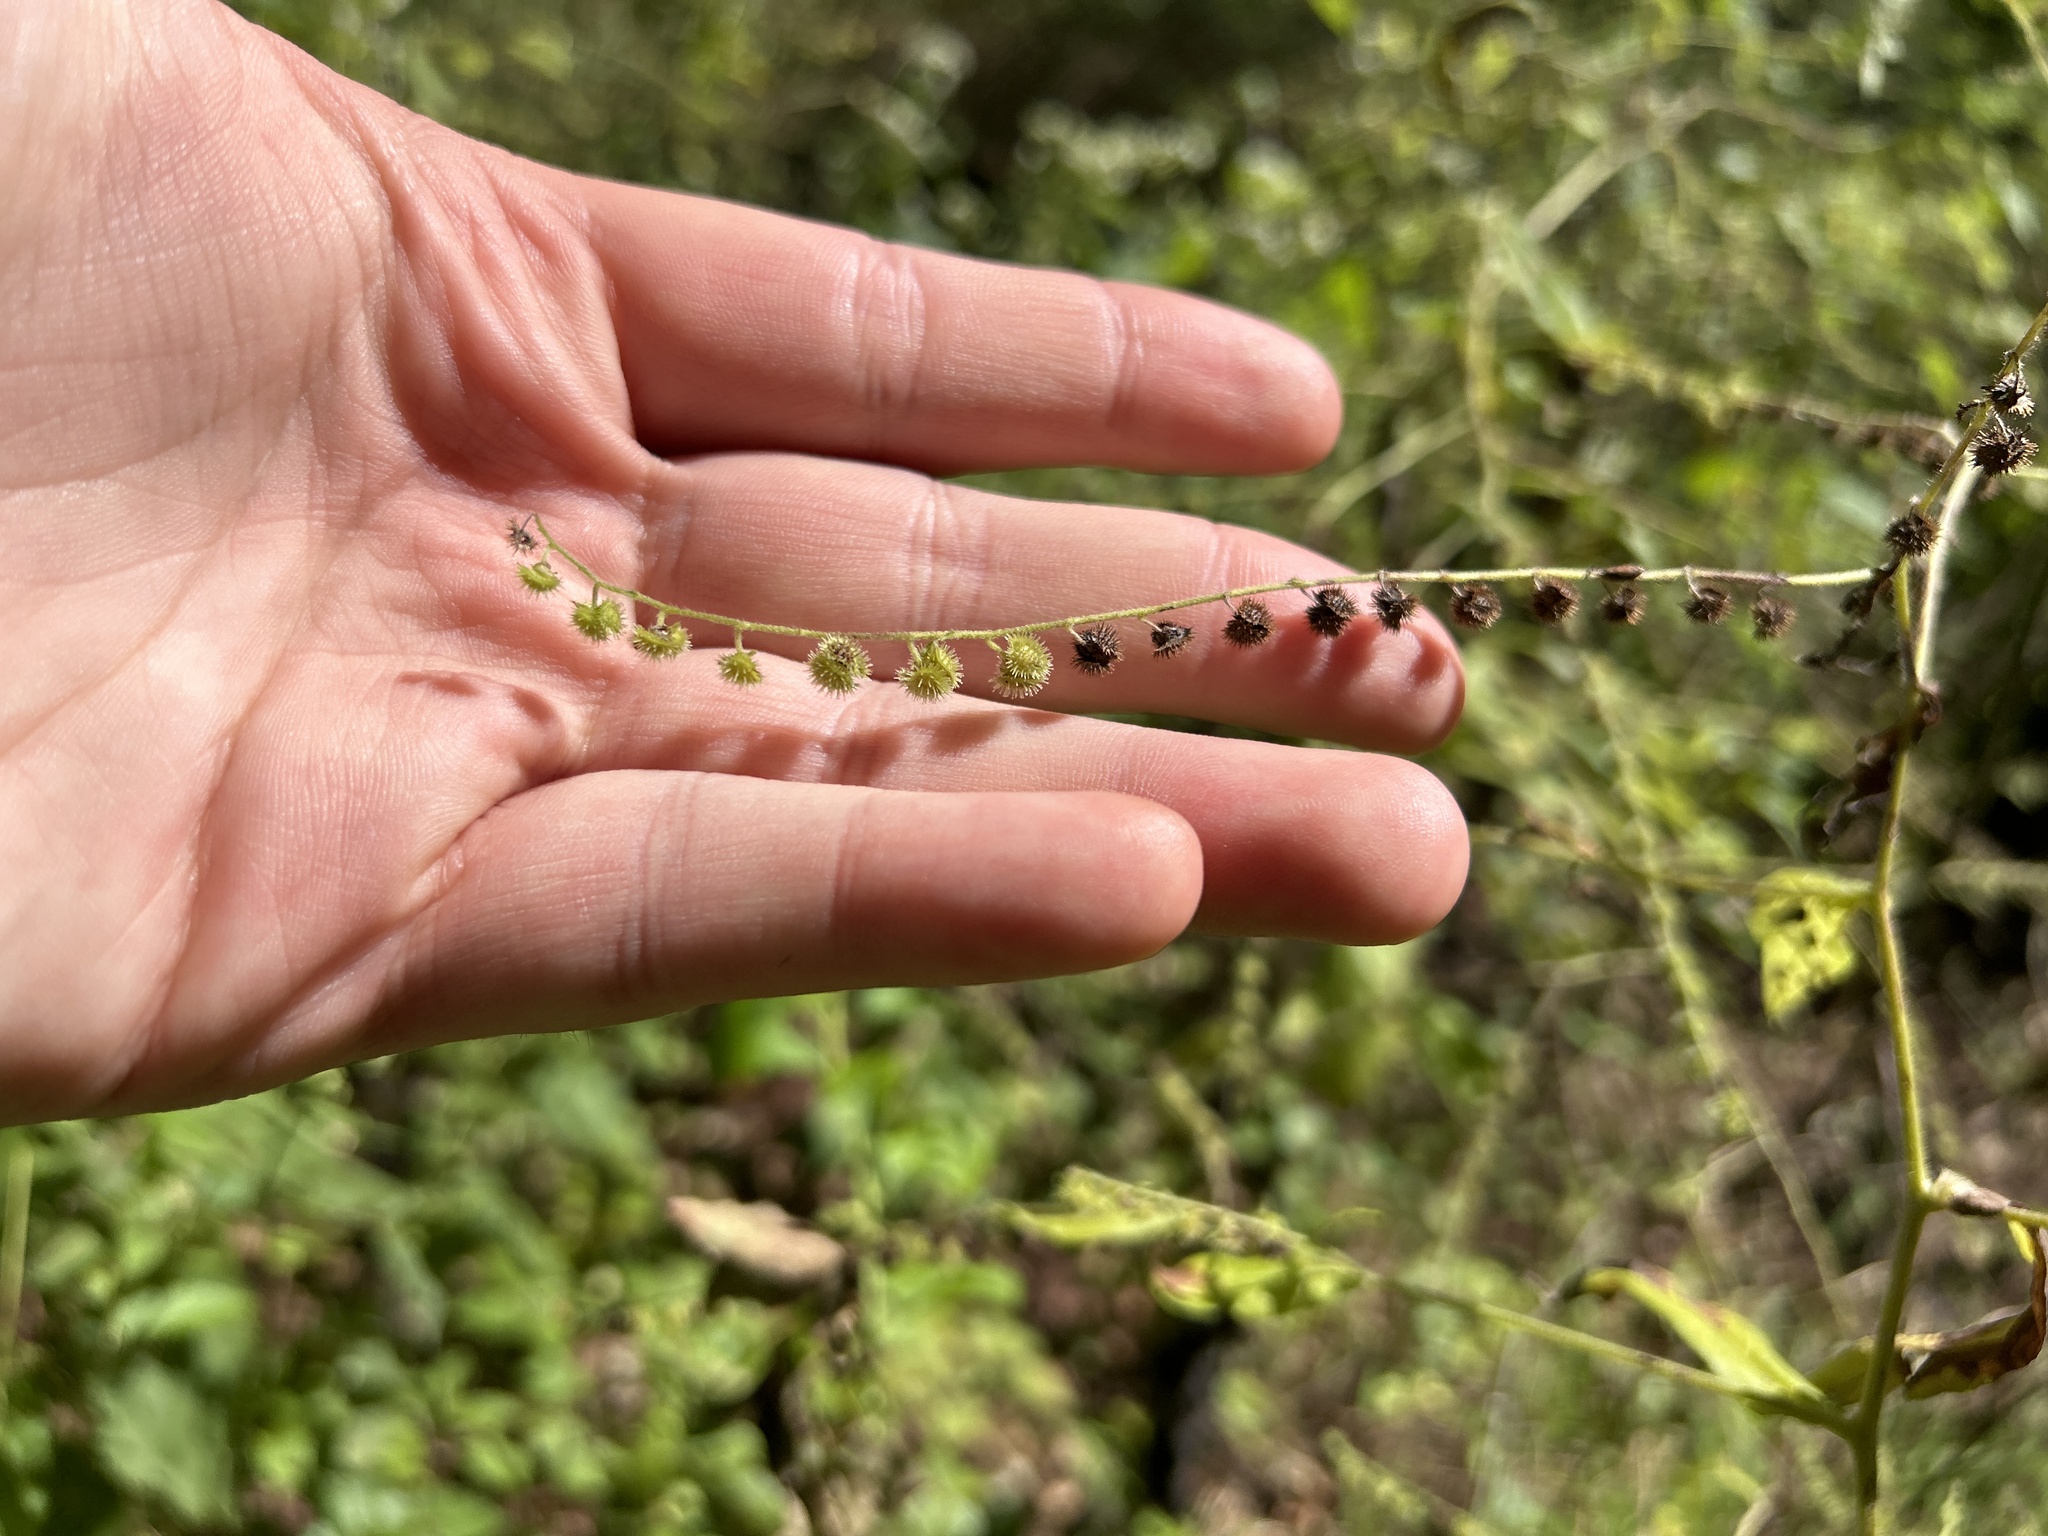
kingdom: Plantae
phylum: Tracheophyta
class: Magnoliopsida
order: Boraginales
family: Boraginaceae
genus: Hackelia
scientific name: Hackelia virginiana
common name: Beggar's-lice
